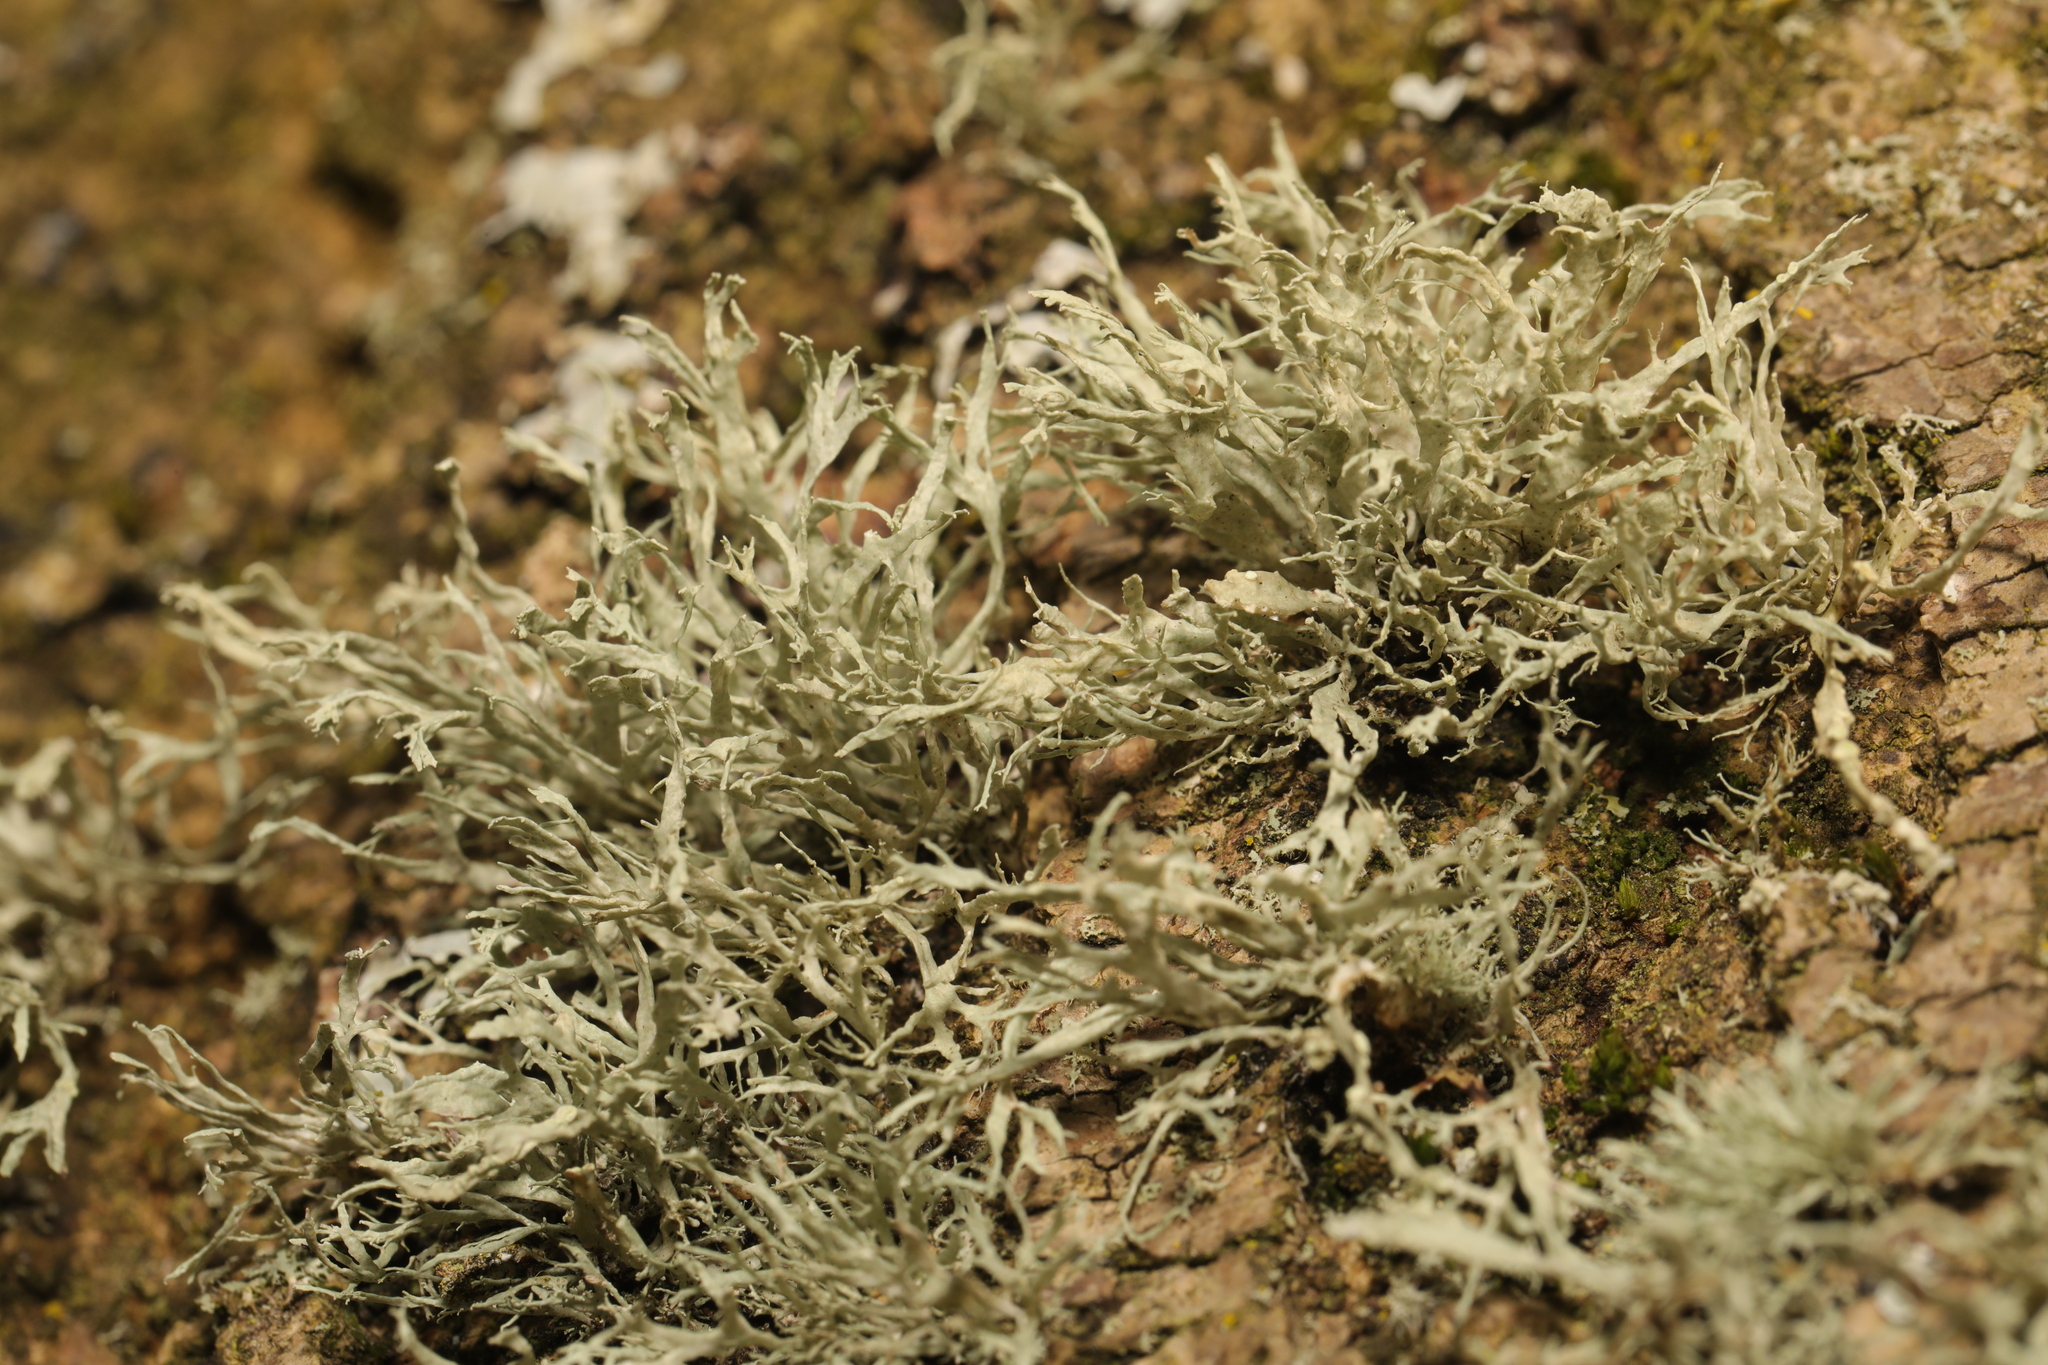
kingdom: Fungi
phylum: Ascomycota
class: Lecanoromycetes
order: Lecanorales
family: Ramalinaceae
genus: Ramalina
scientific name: Ramalina farinacea
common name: Farinose cartilage lichen
